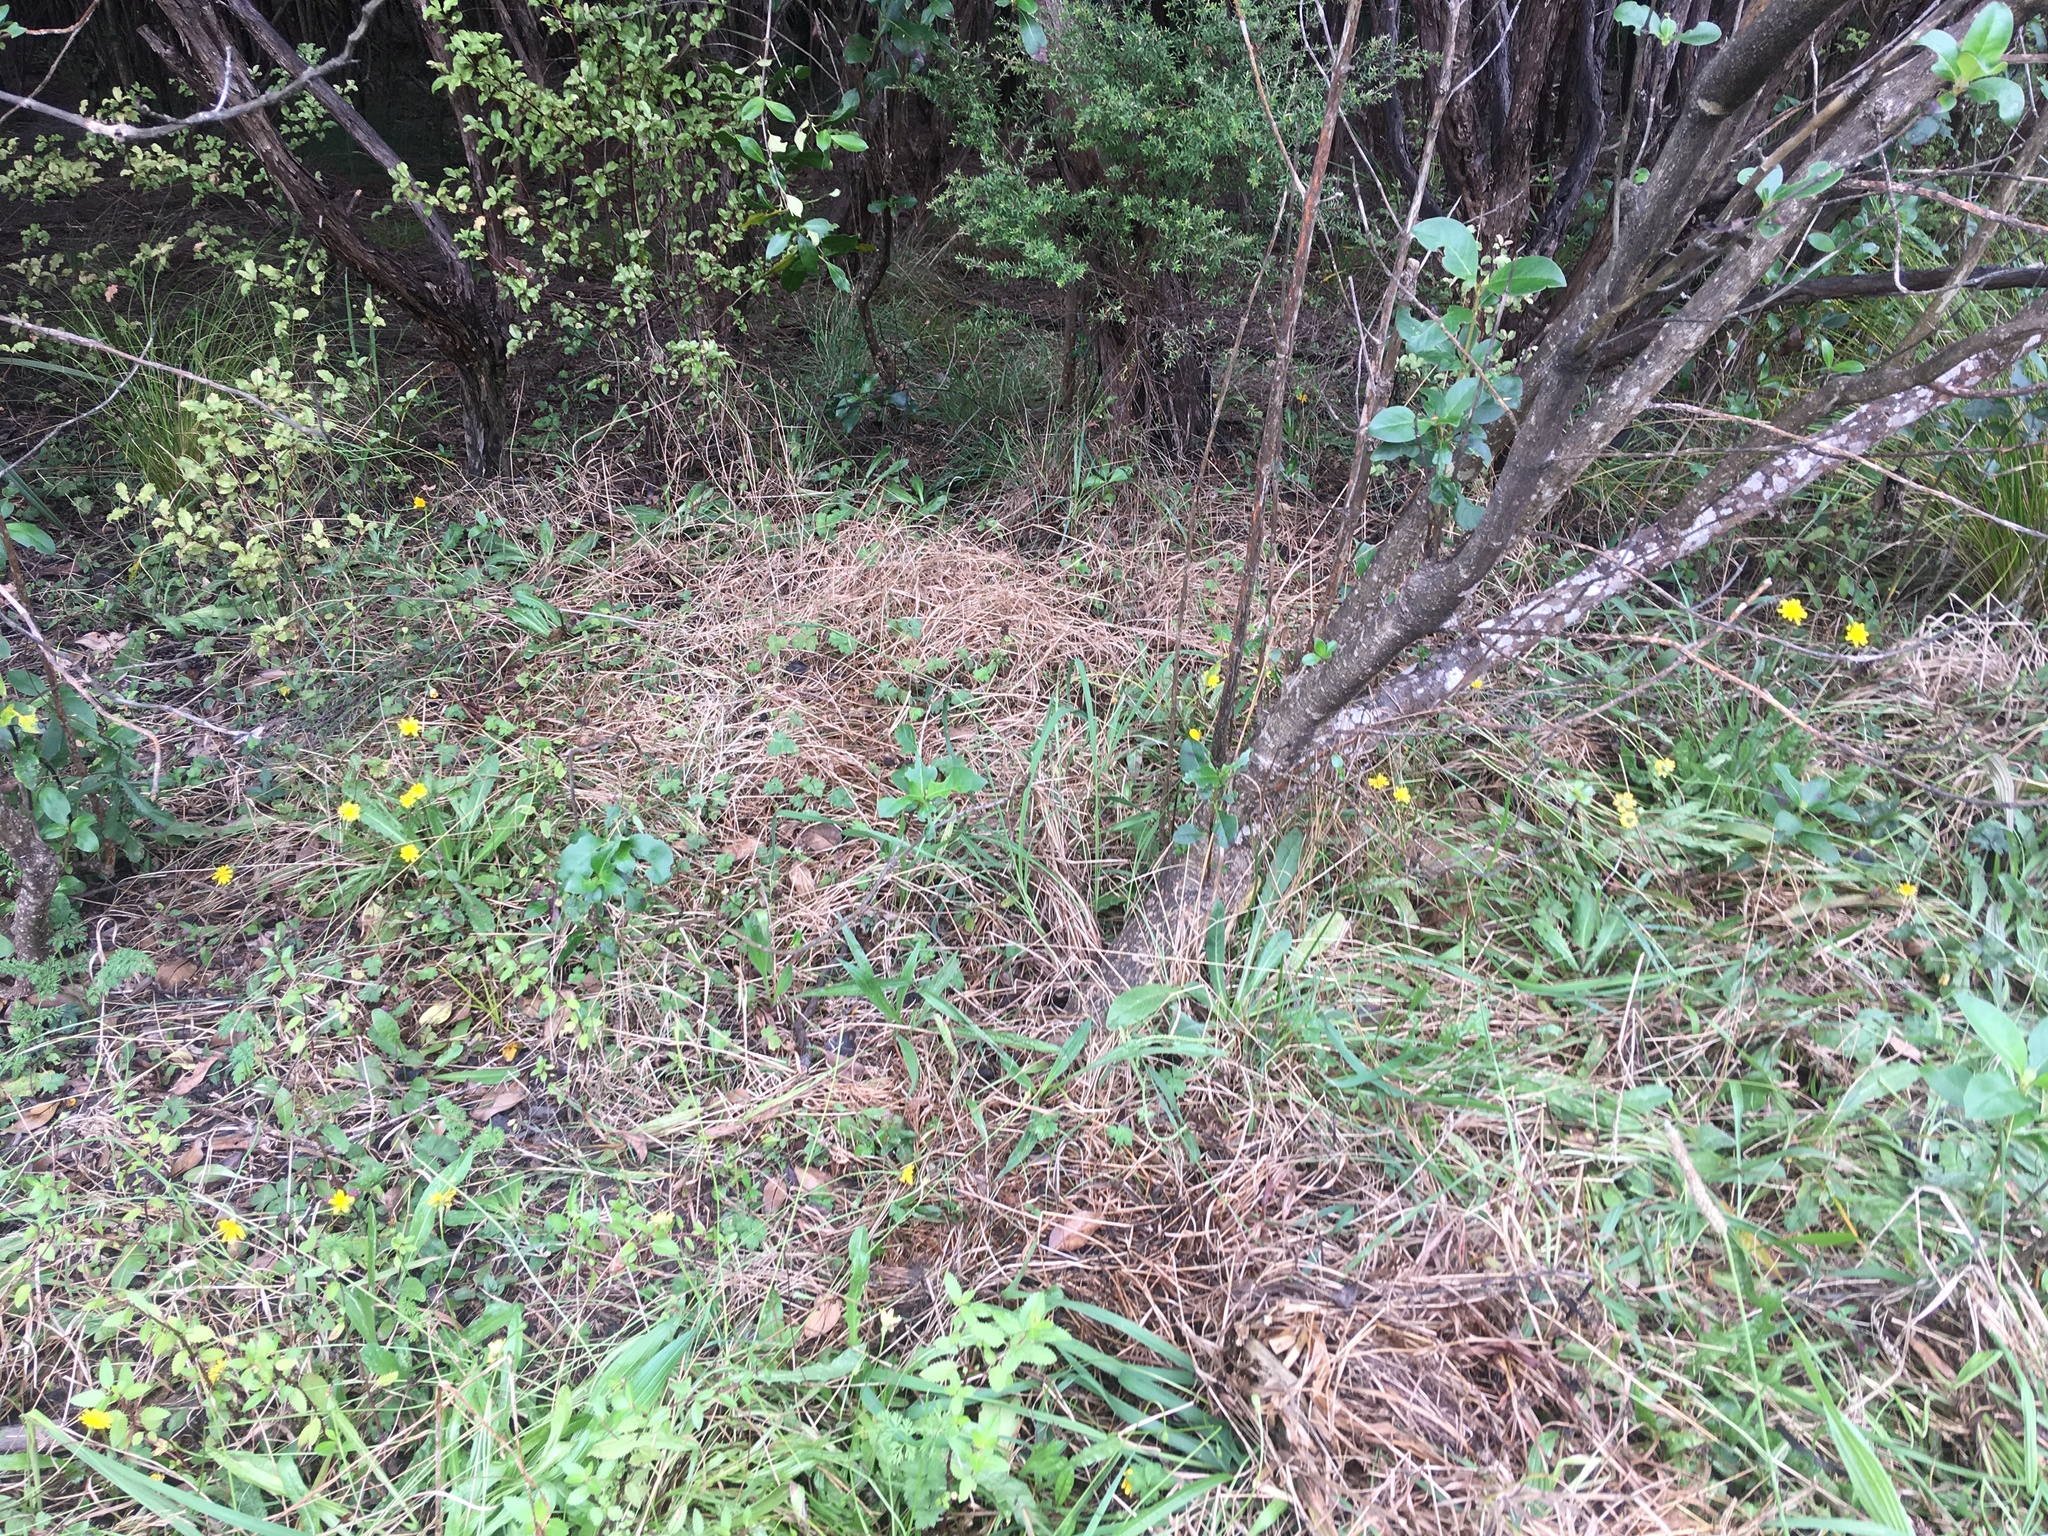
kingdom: Plantae
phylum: Tracheophyta
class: Magnoliopsida
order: Ericales
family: Primulaceae
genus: Myrsine
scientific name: Myrsine australis
